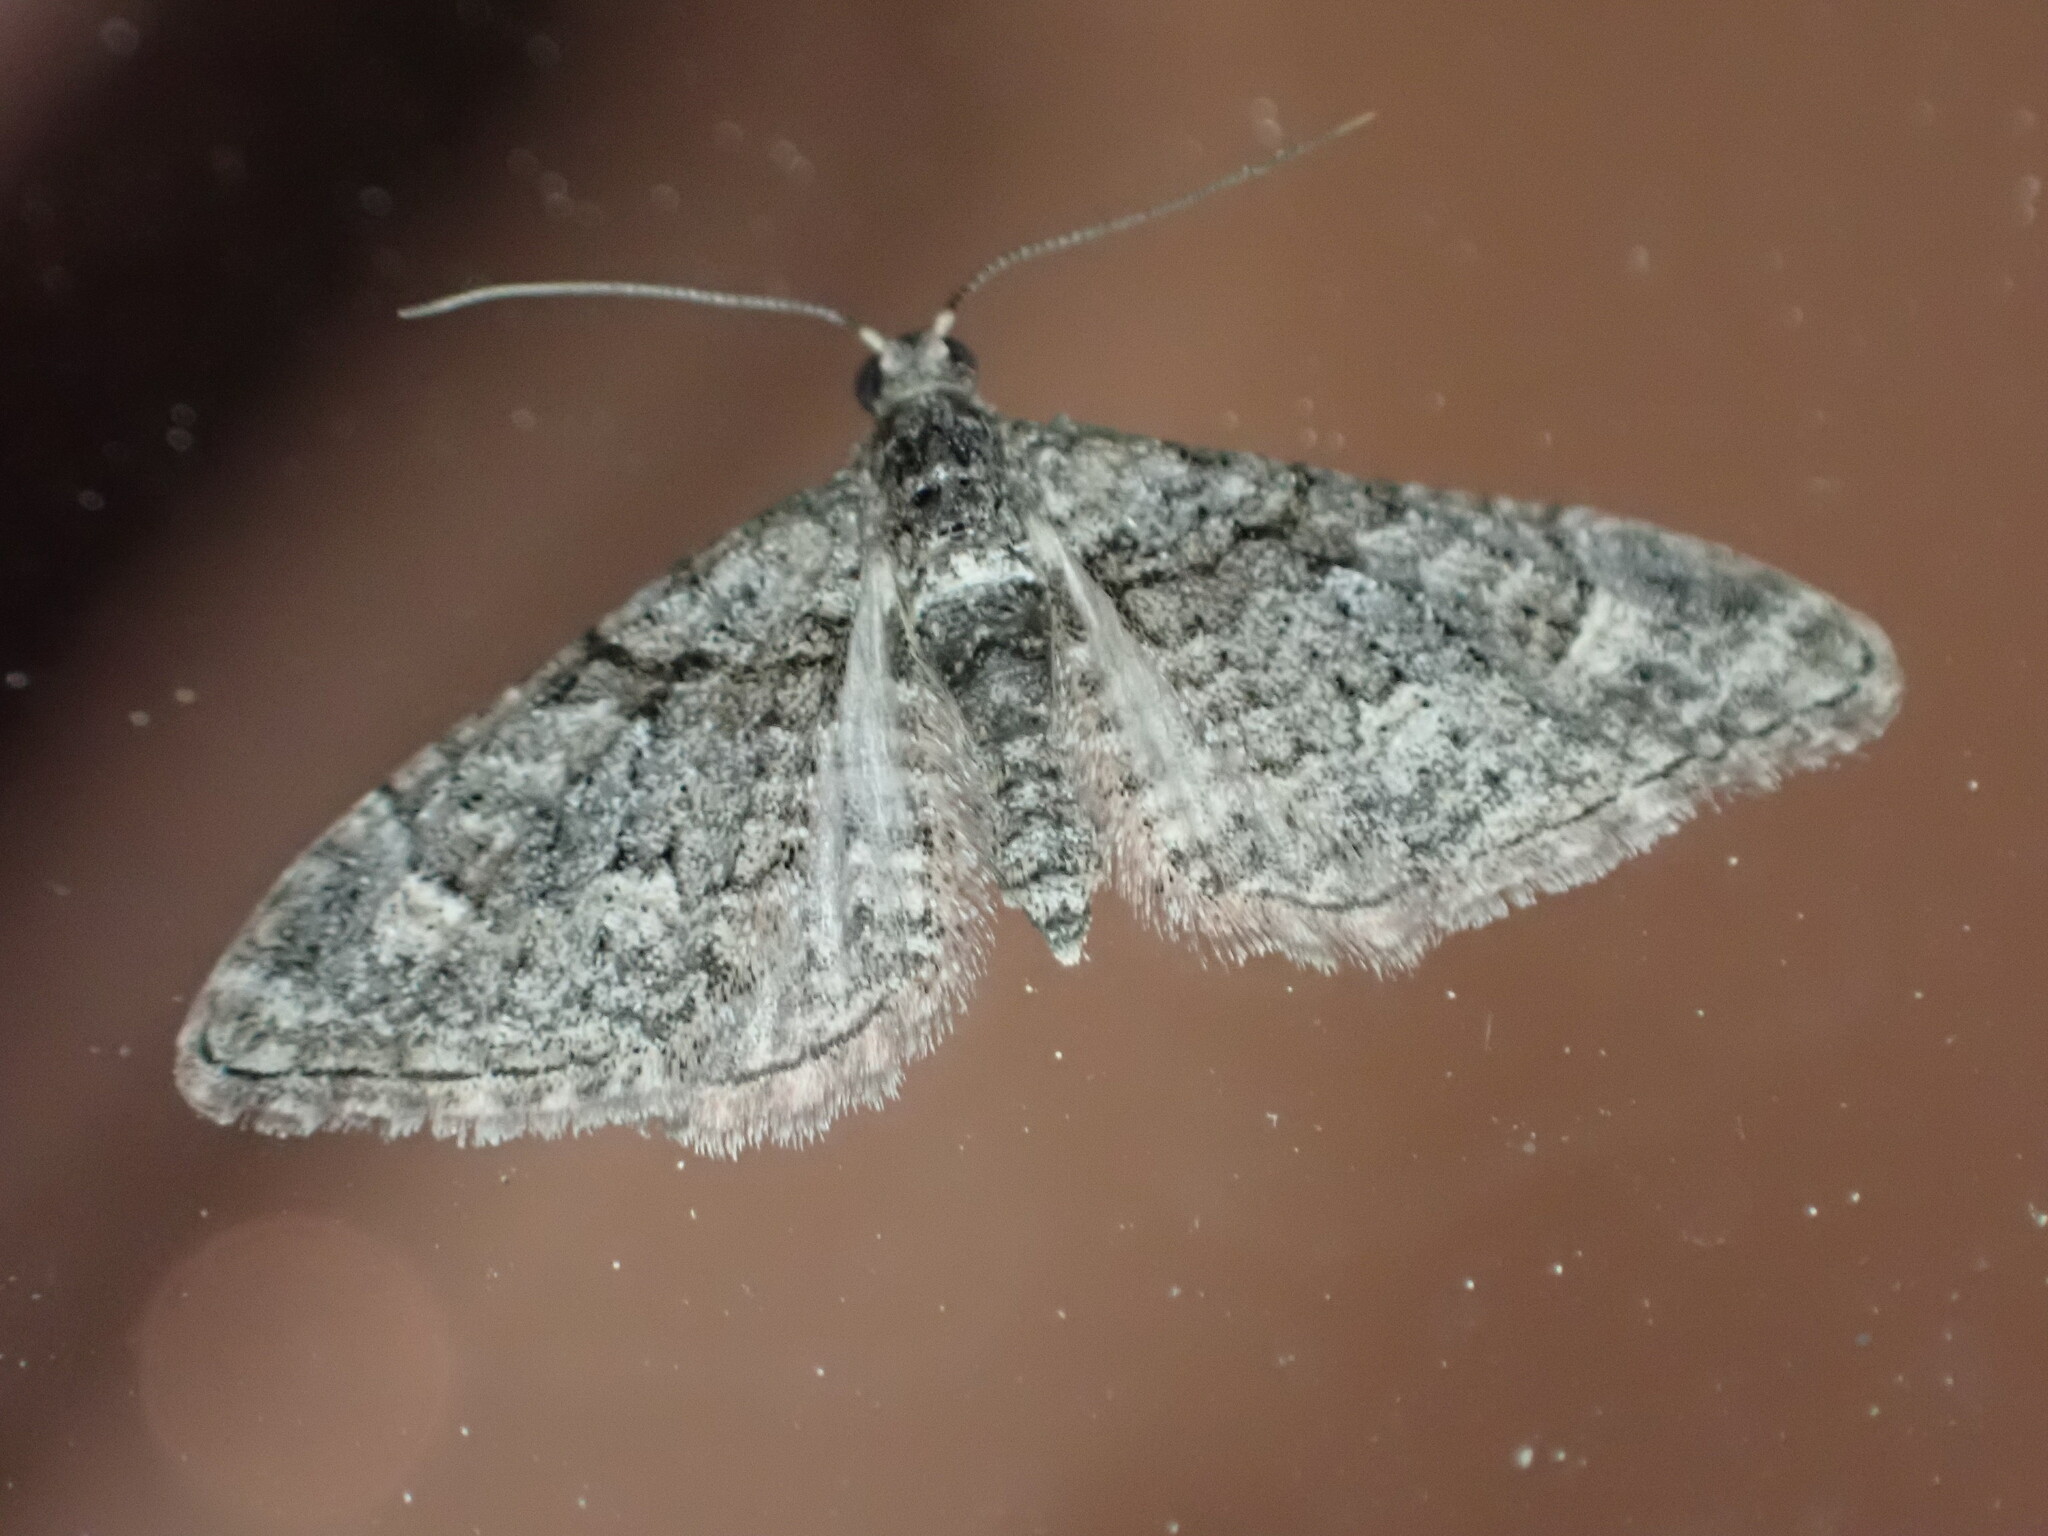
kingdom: Animalia
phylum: Arthropoda
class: Insecta
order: Lepidoptera
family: Geometridae
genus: Phrissogonus
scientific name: Phrissogonus laticostata
